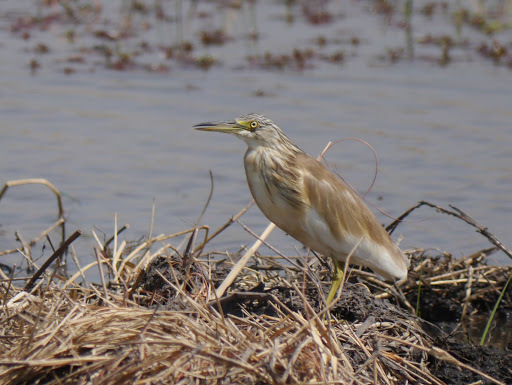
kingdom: Animalia
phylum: Chordata
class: Aves
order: Pelecaniformes
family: Ardeidae
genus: Ardeola
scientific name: Ardeola ralloides
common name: Squacco heron
